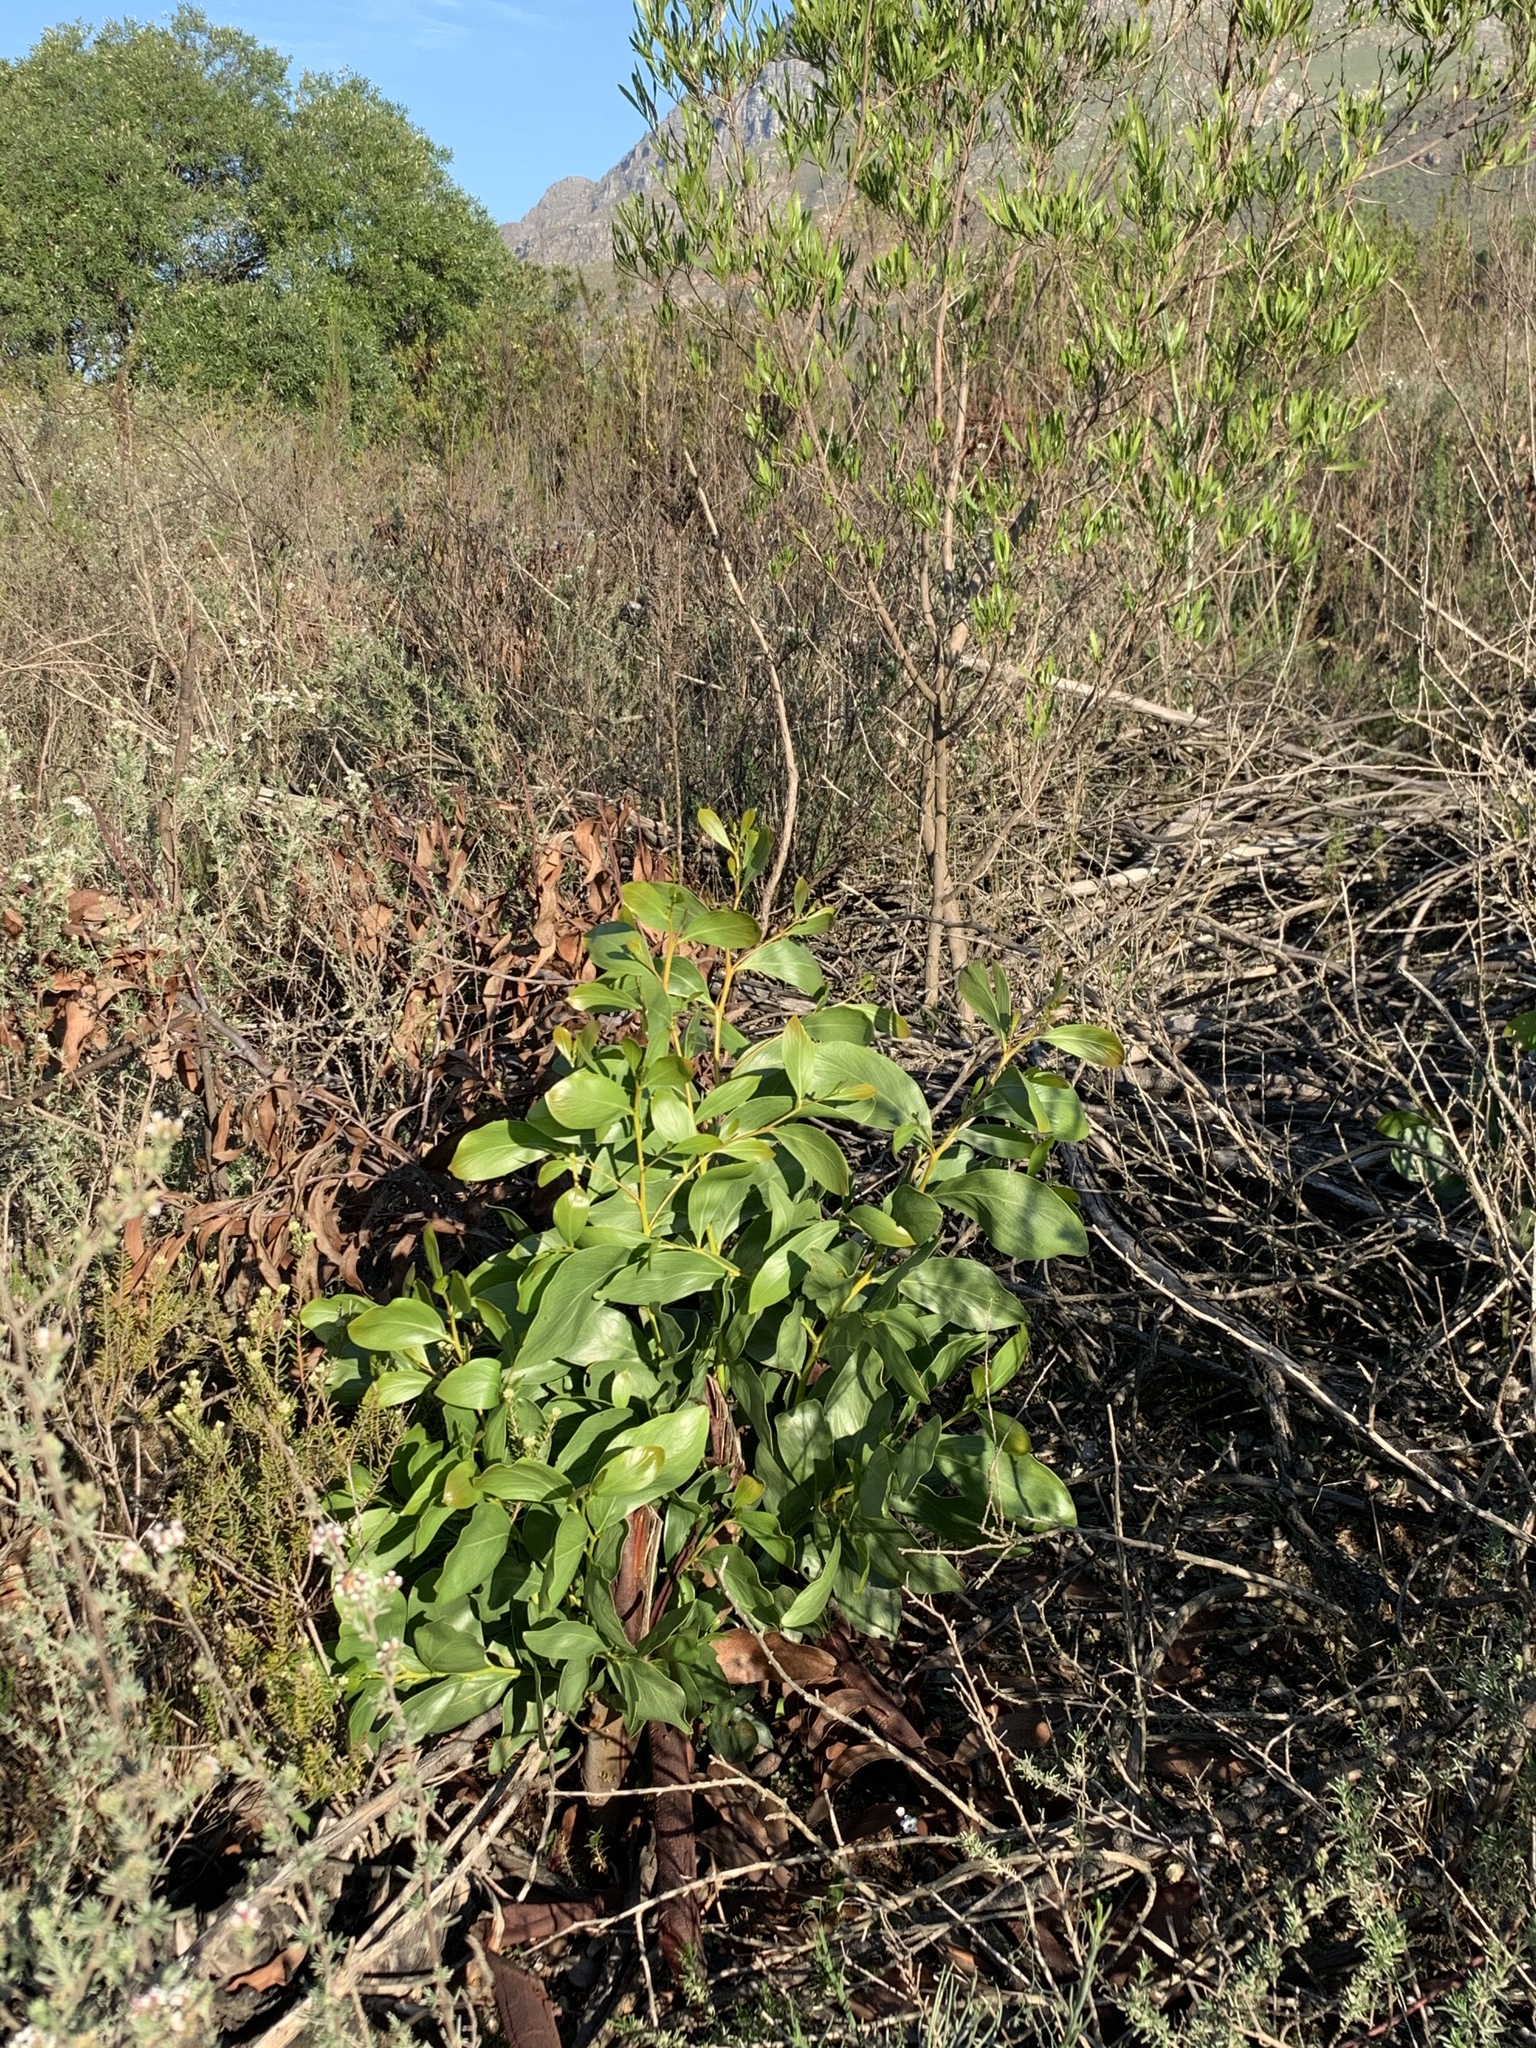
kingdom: Plantae
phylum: Tracheophyta
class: Magnoliopsida
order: Fabales
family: Fabaceae
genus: Acacia
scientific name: Acacia pycnantha
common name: Golden wattle
